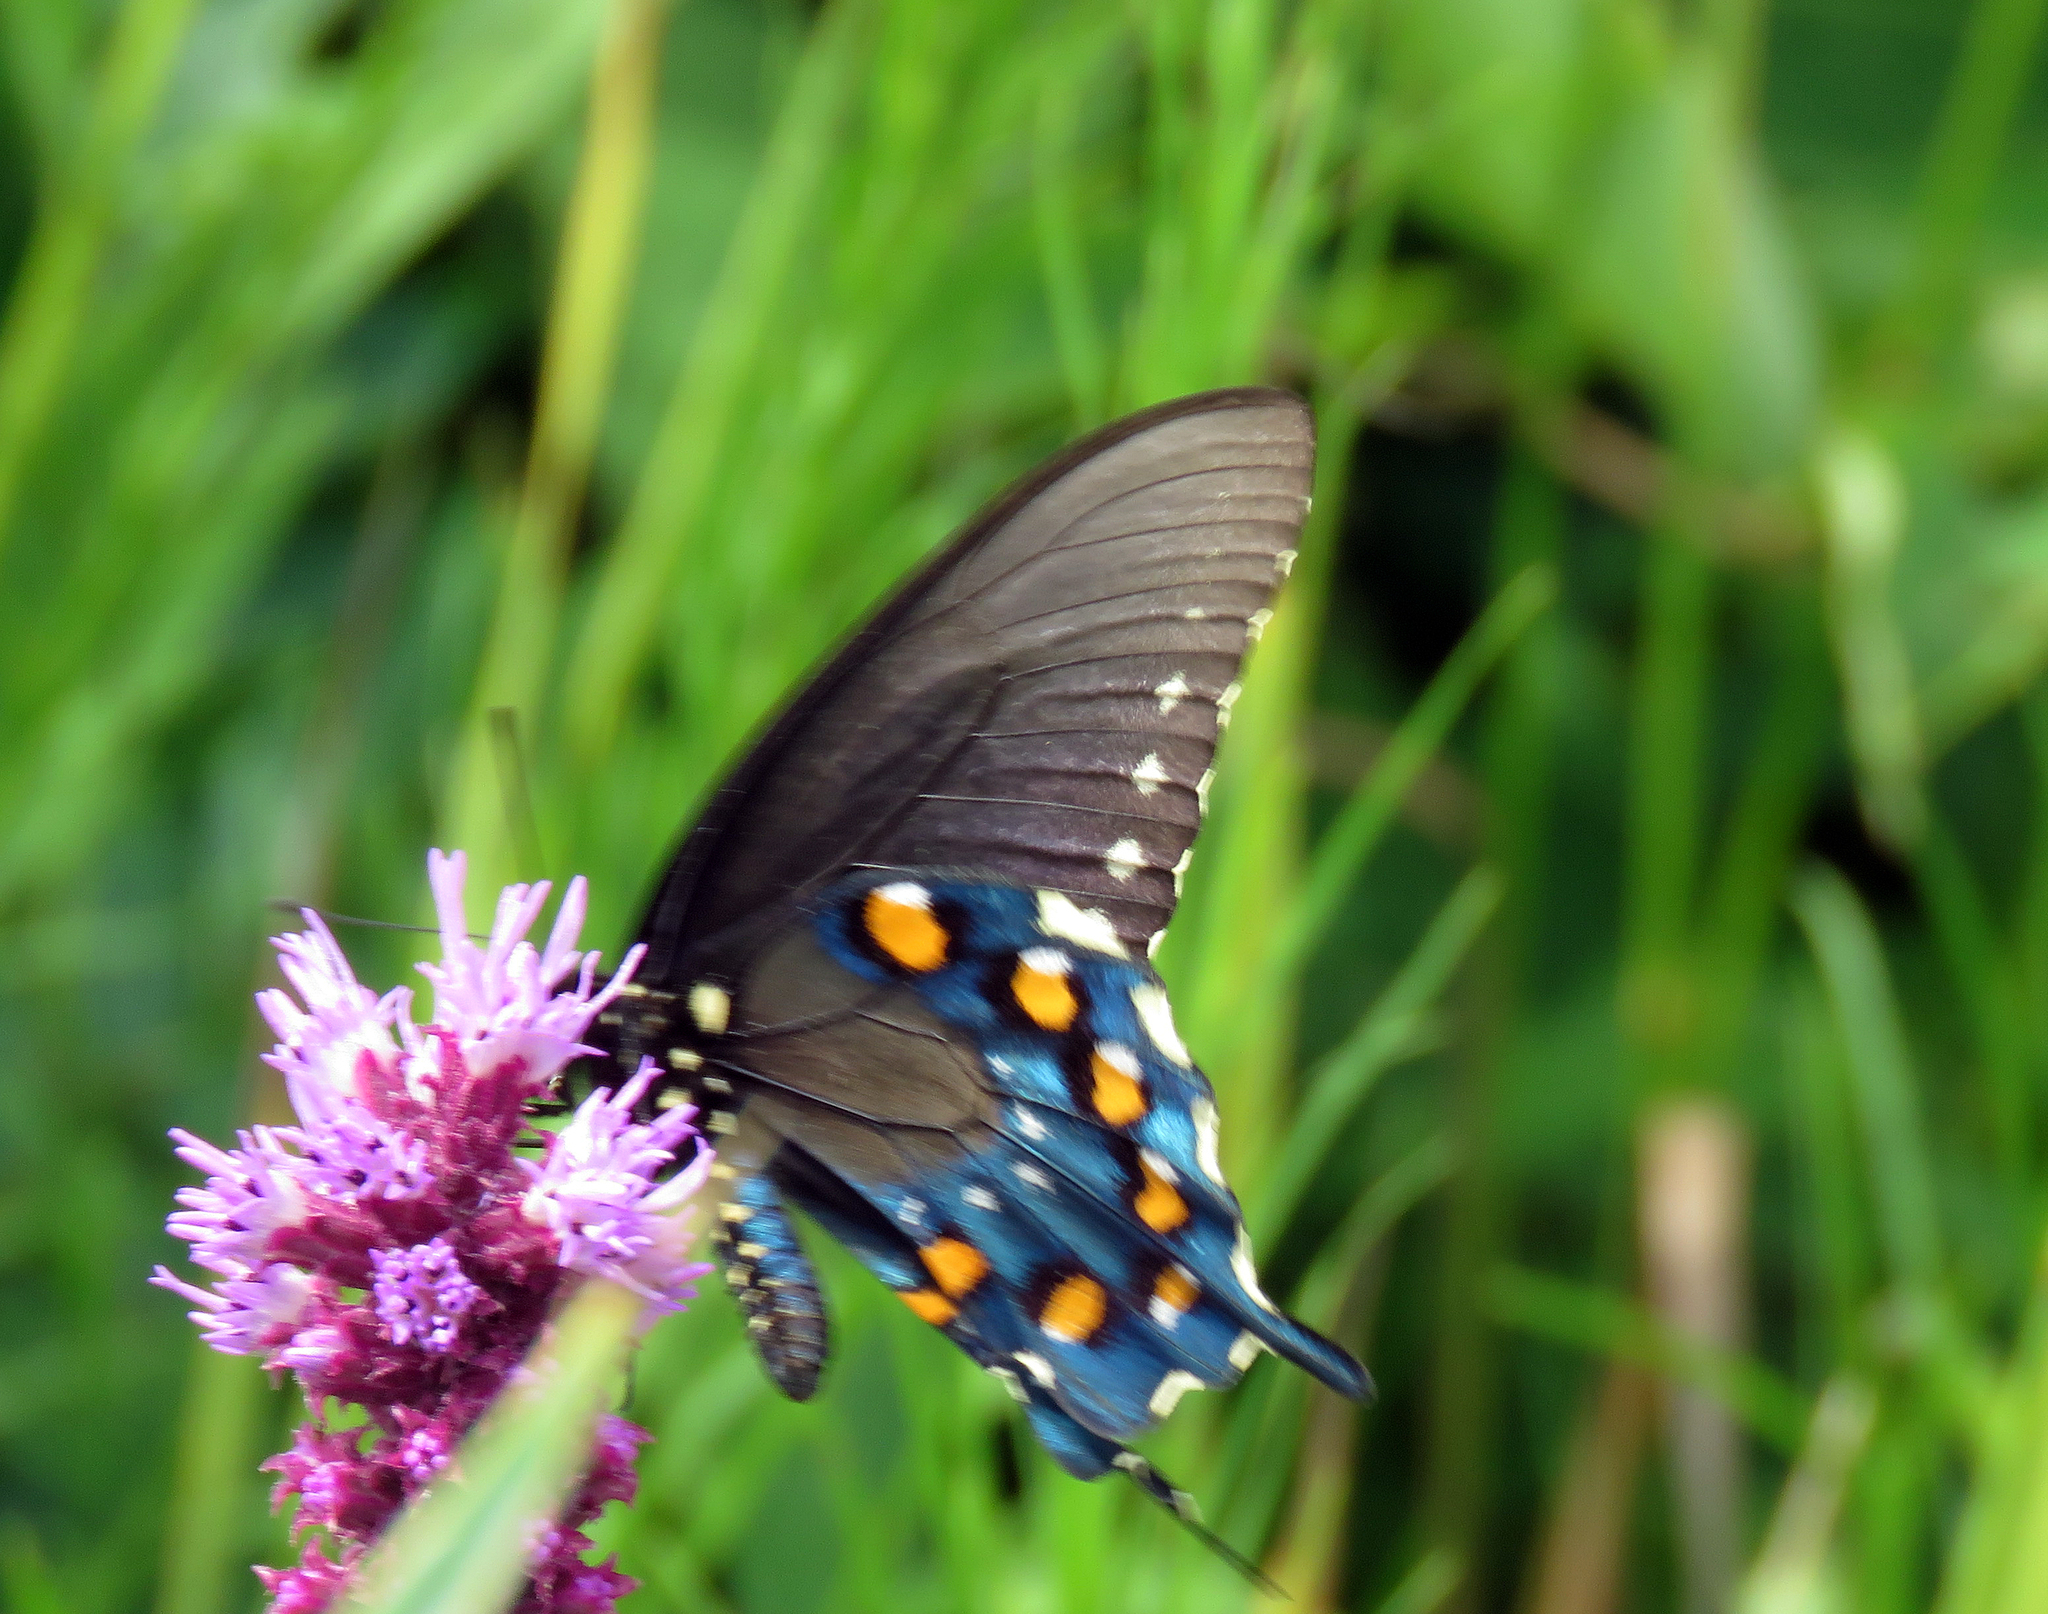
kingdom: Animalia
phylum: Arthropoda
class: Insecta
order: Lepidoptera
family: Papilionidae
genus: Battus
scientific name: Battus philenor
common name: Pipevine swallowtail
